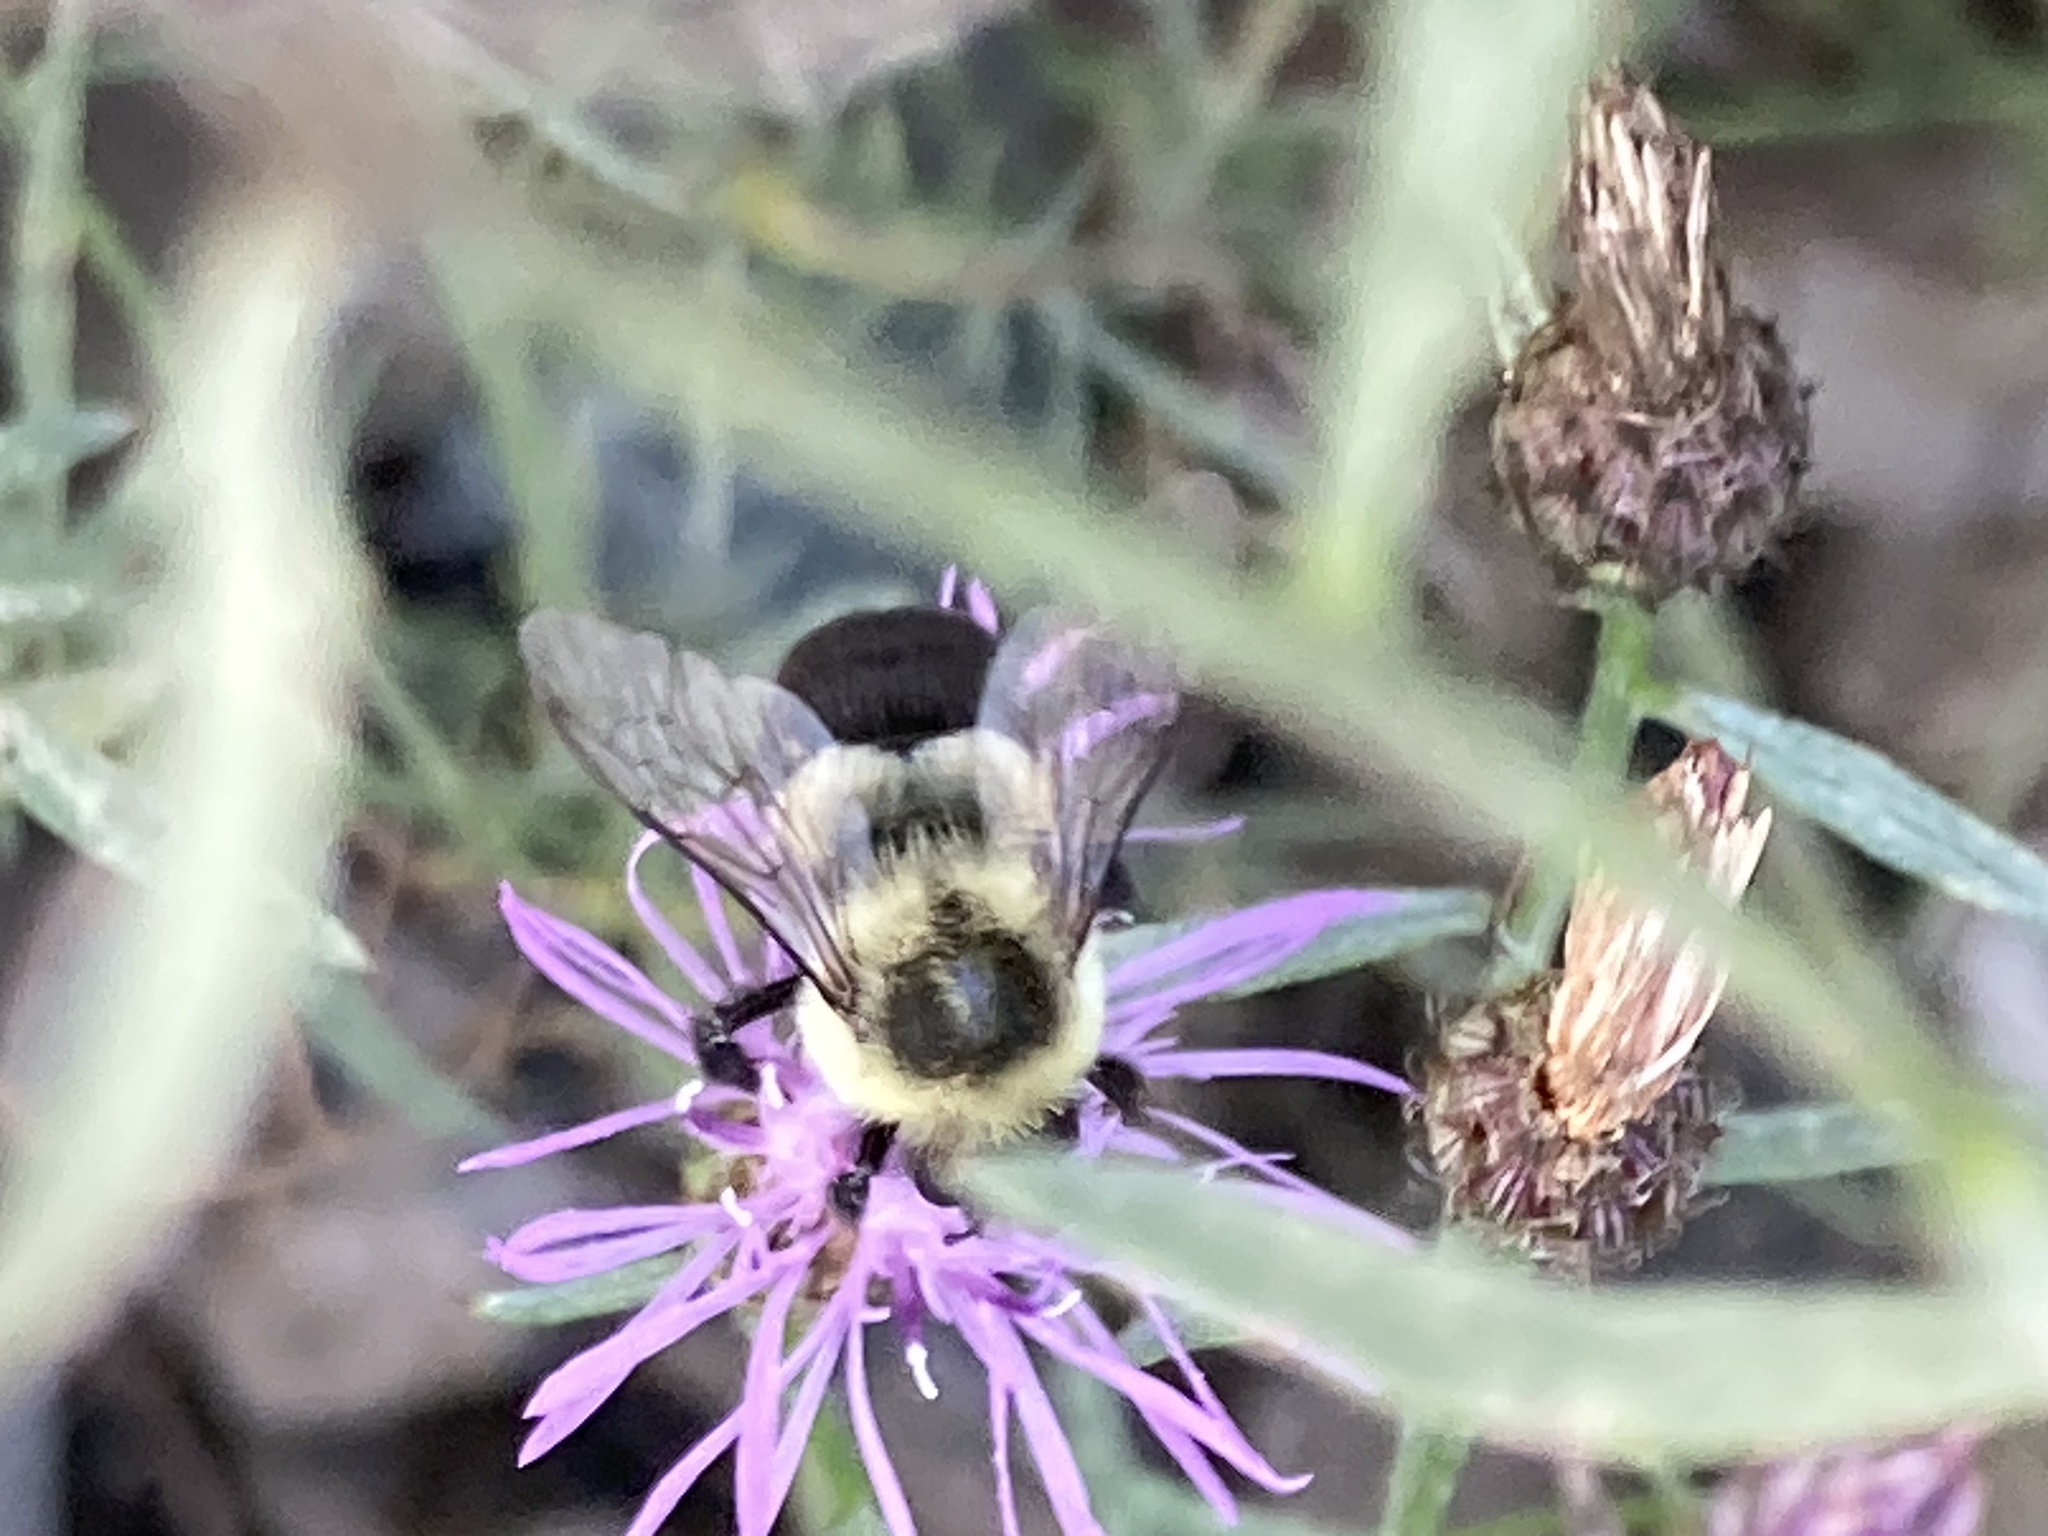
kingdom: Animalia
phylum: Arthropoda
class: Insecta
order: Hymenoptera
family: Apidae
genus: Bombus
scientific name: Bombus impatiens
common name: Common eastern bumble bee
